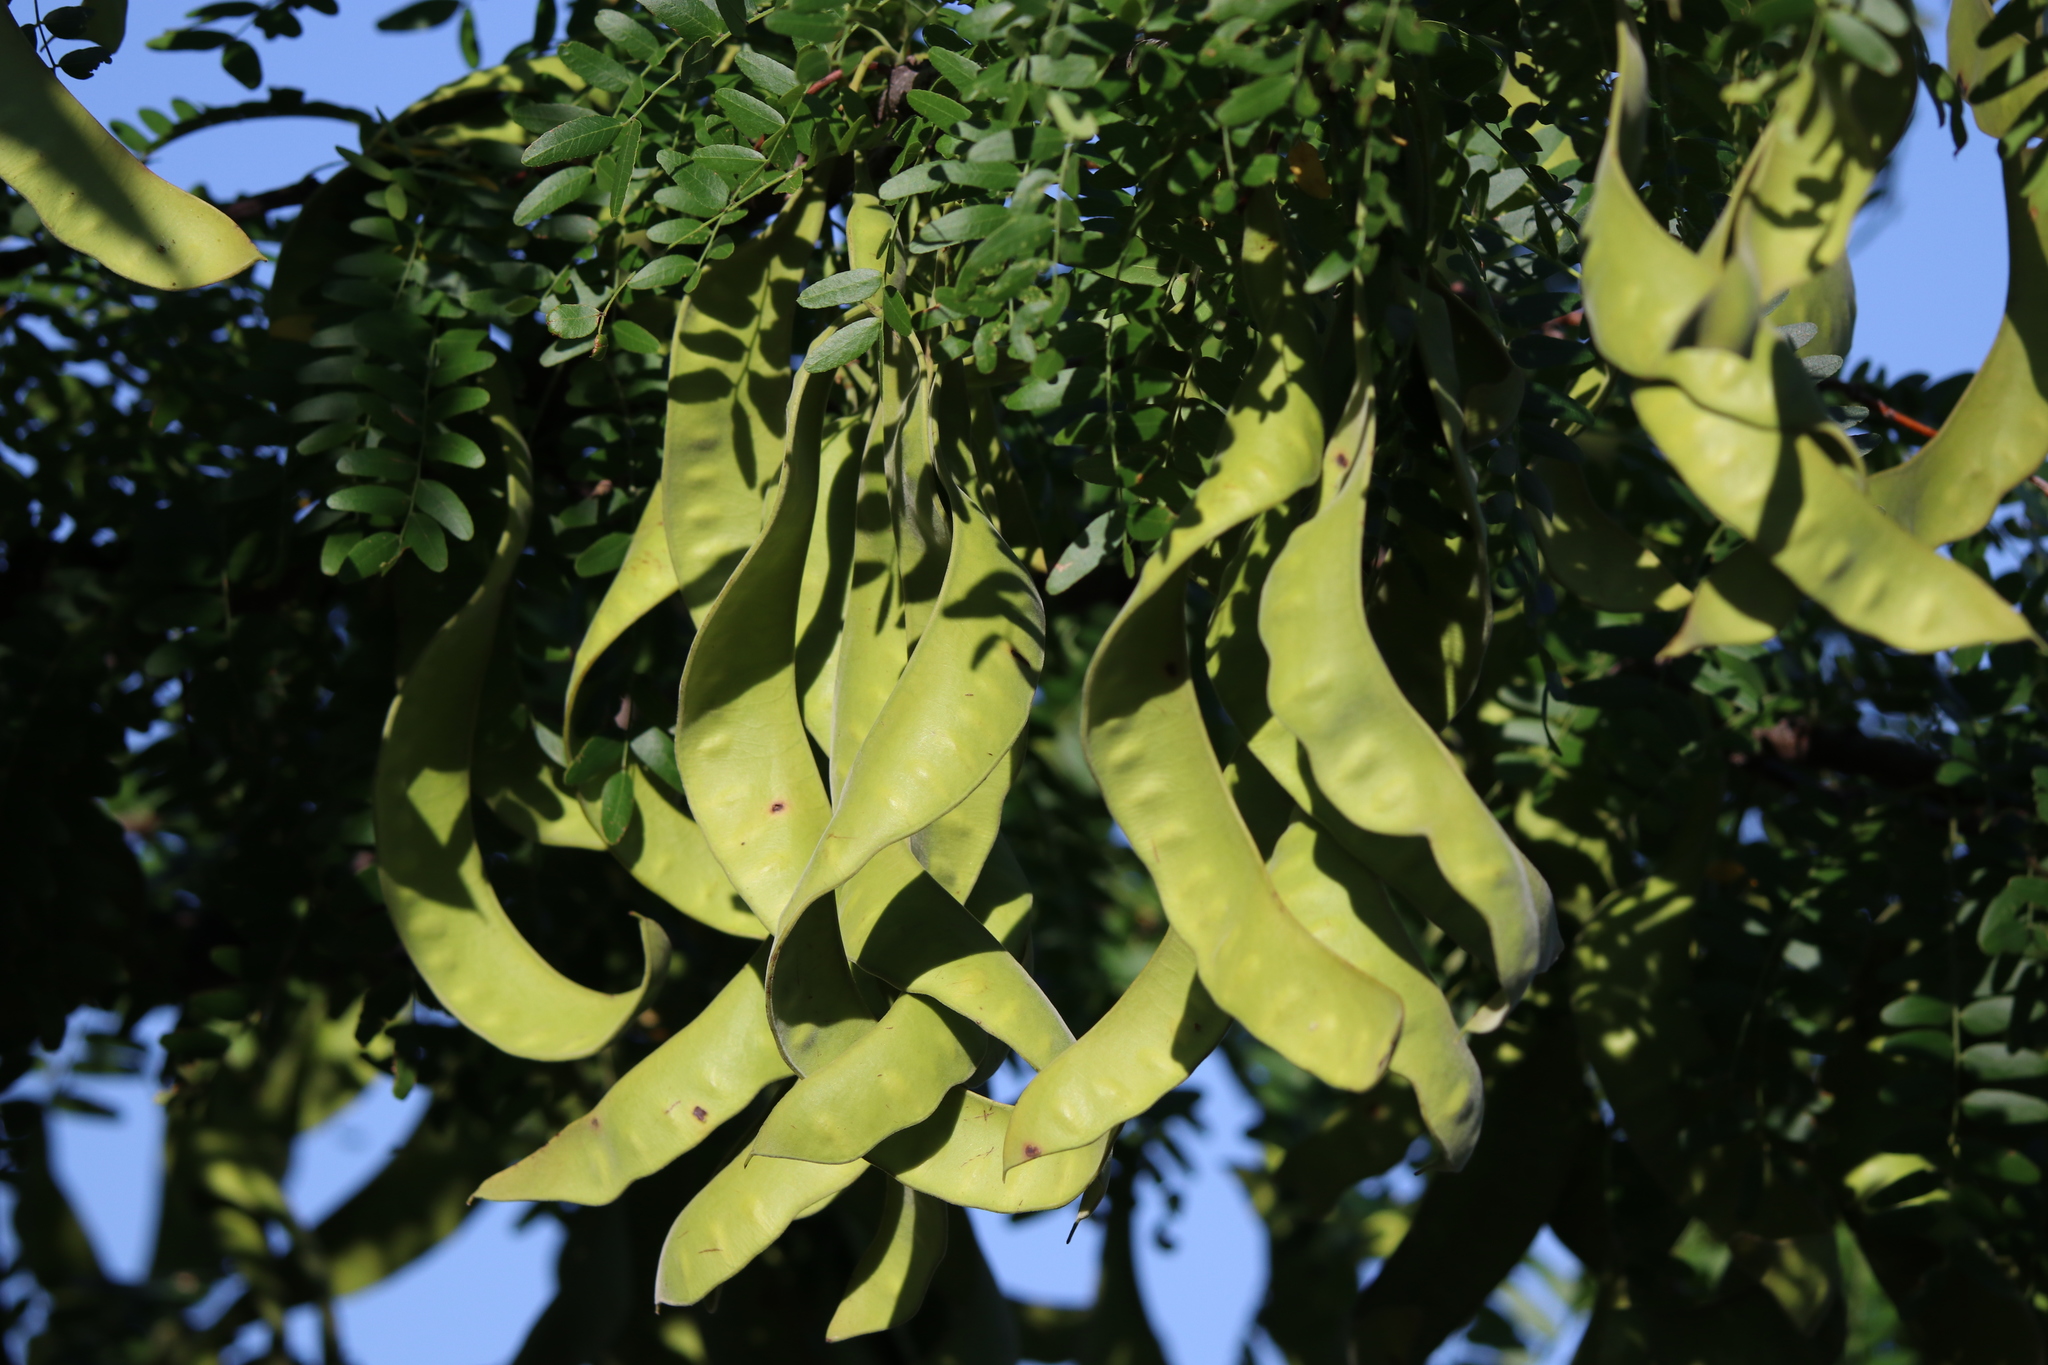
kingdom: Plantae
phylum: Tracheophyta
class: Magnoliopsida
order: Fabales
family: Fabaceae
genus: Gleditsia
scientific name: Gleditsia triacanthos
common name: Common honeylocust
